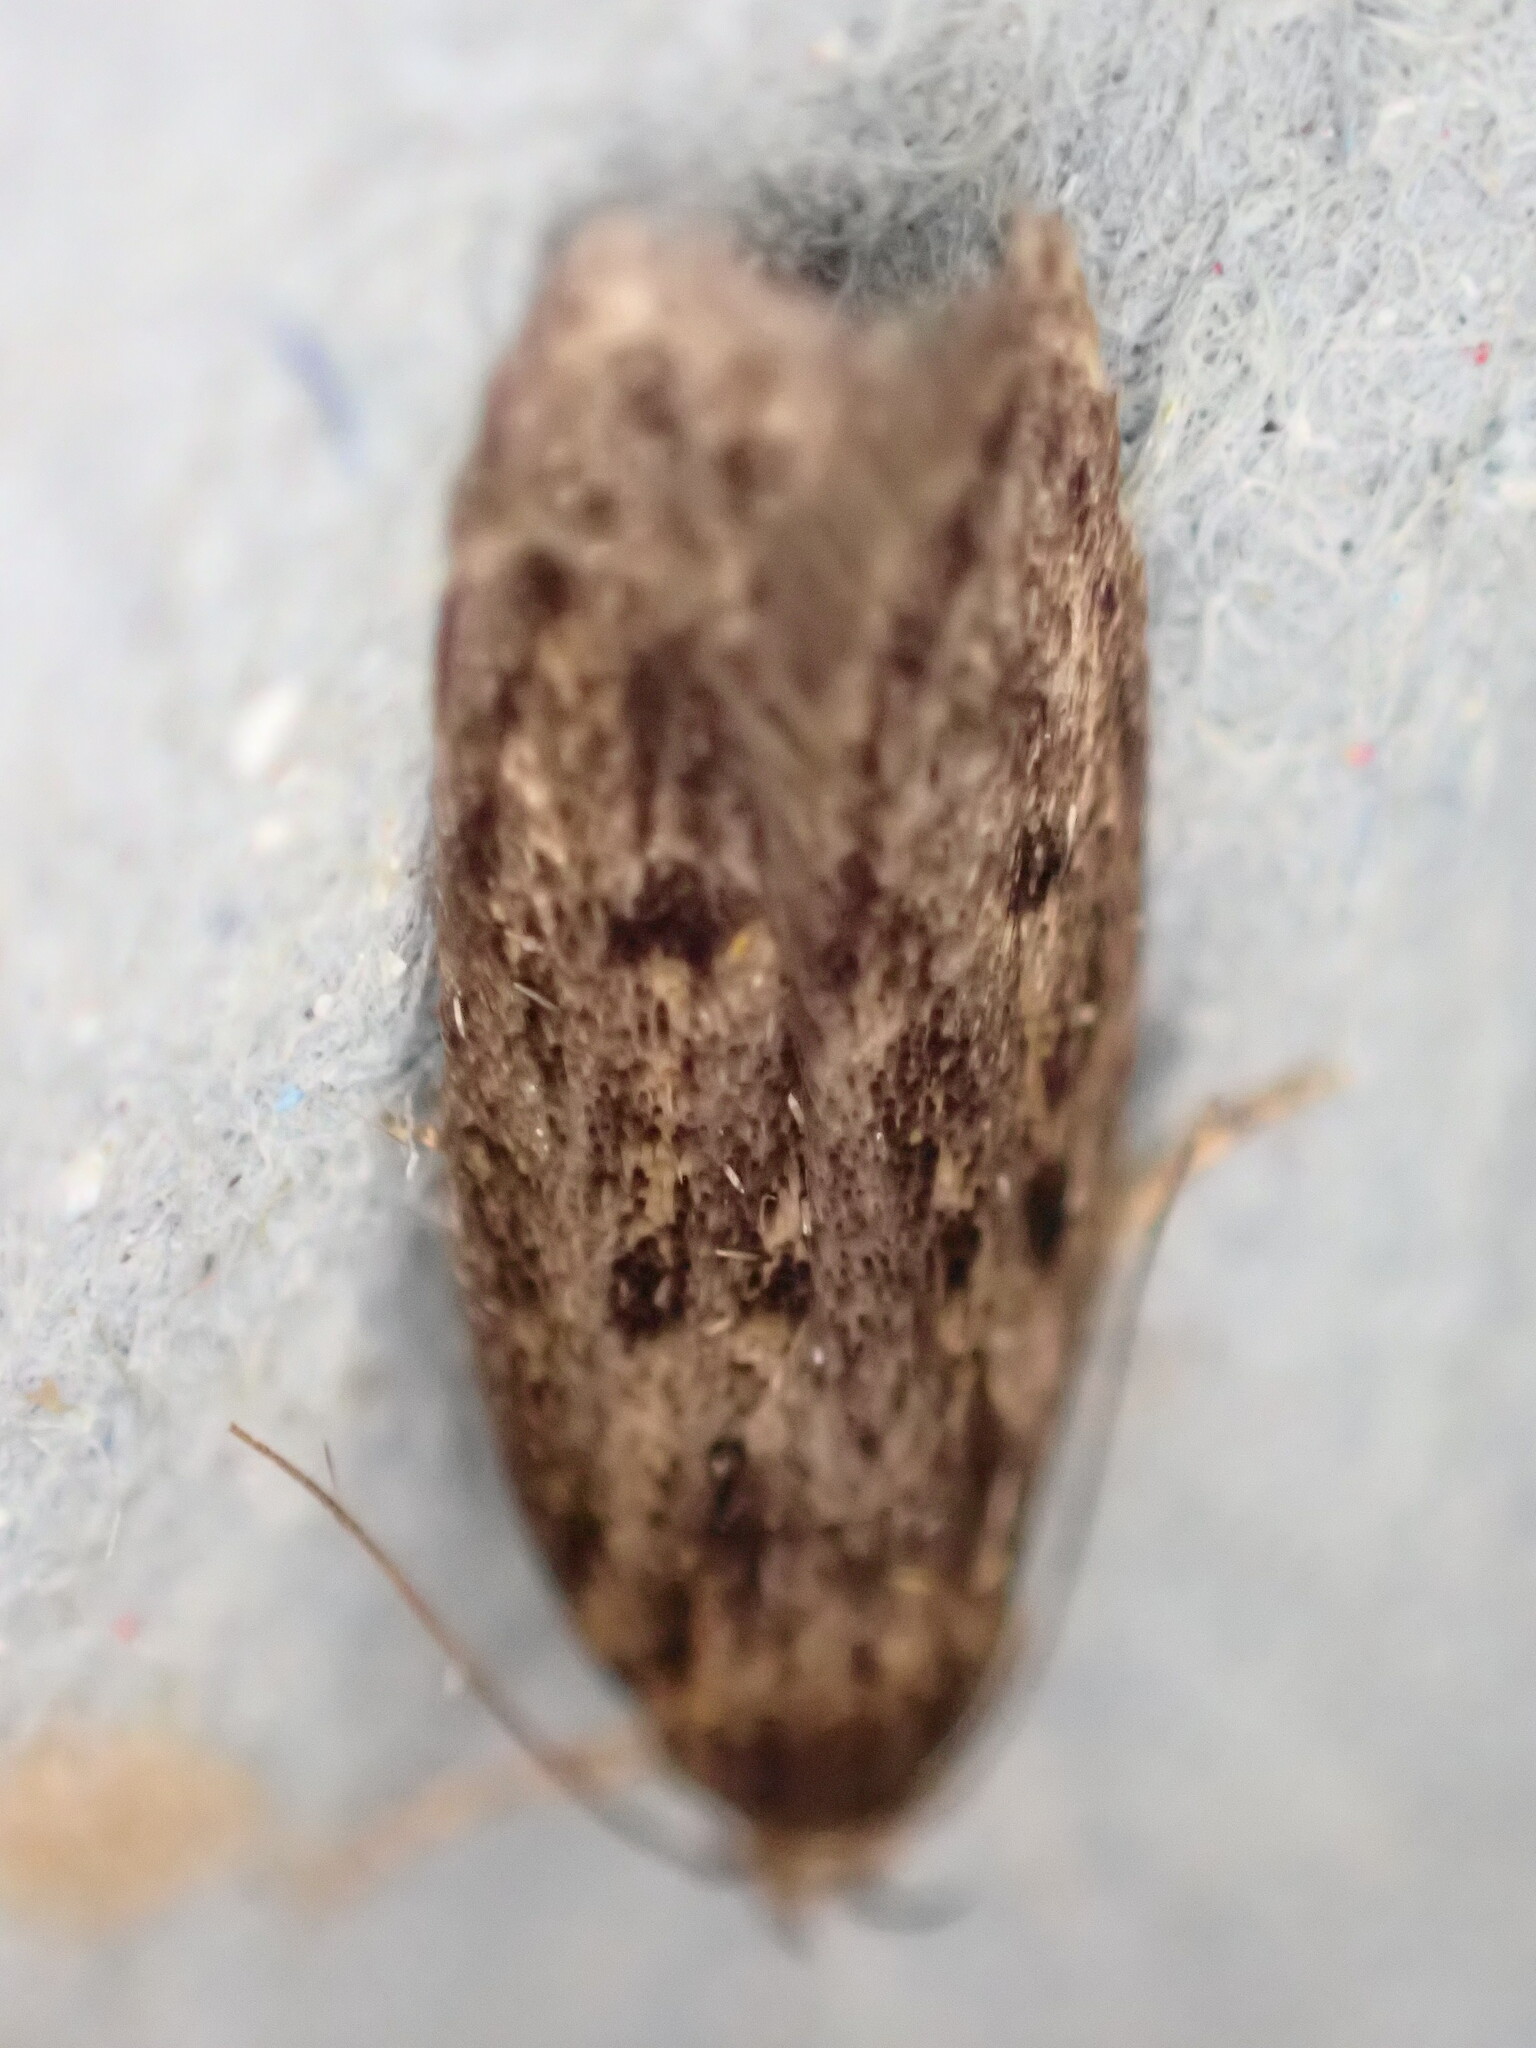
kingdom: Animalia
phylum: Arthropoda
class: Insecta
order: Lepidoptera
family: Oecophoridae
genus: Hofmannophila
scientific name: Hofmannophila pseudospretella
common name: Brown house moth
